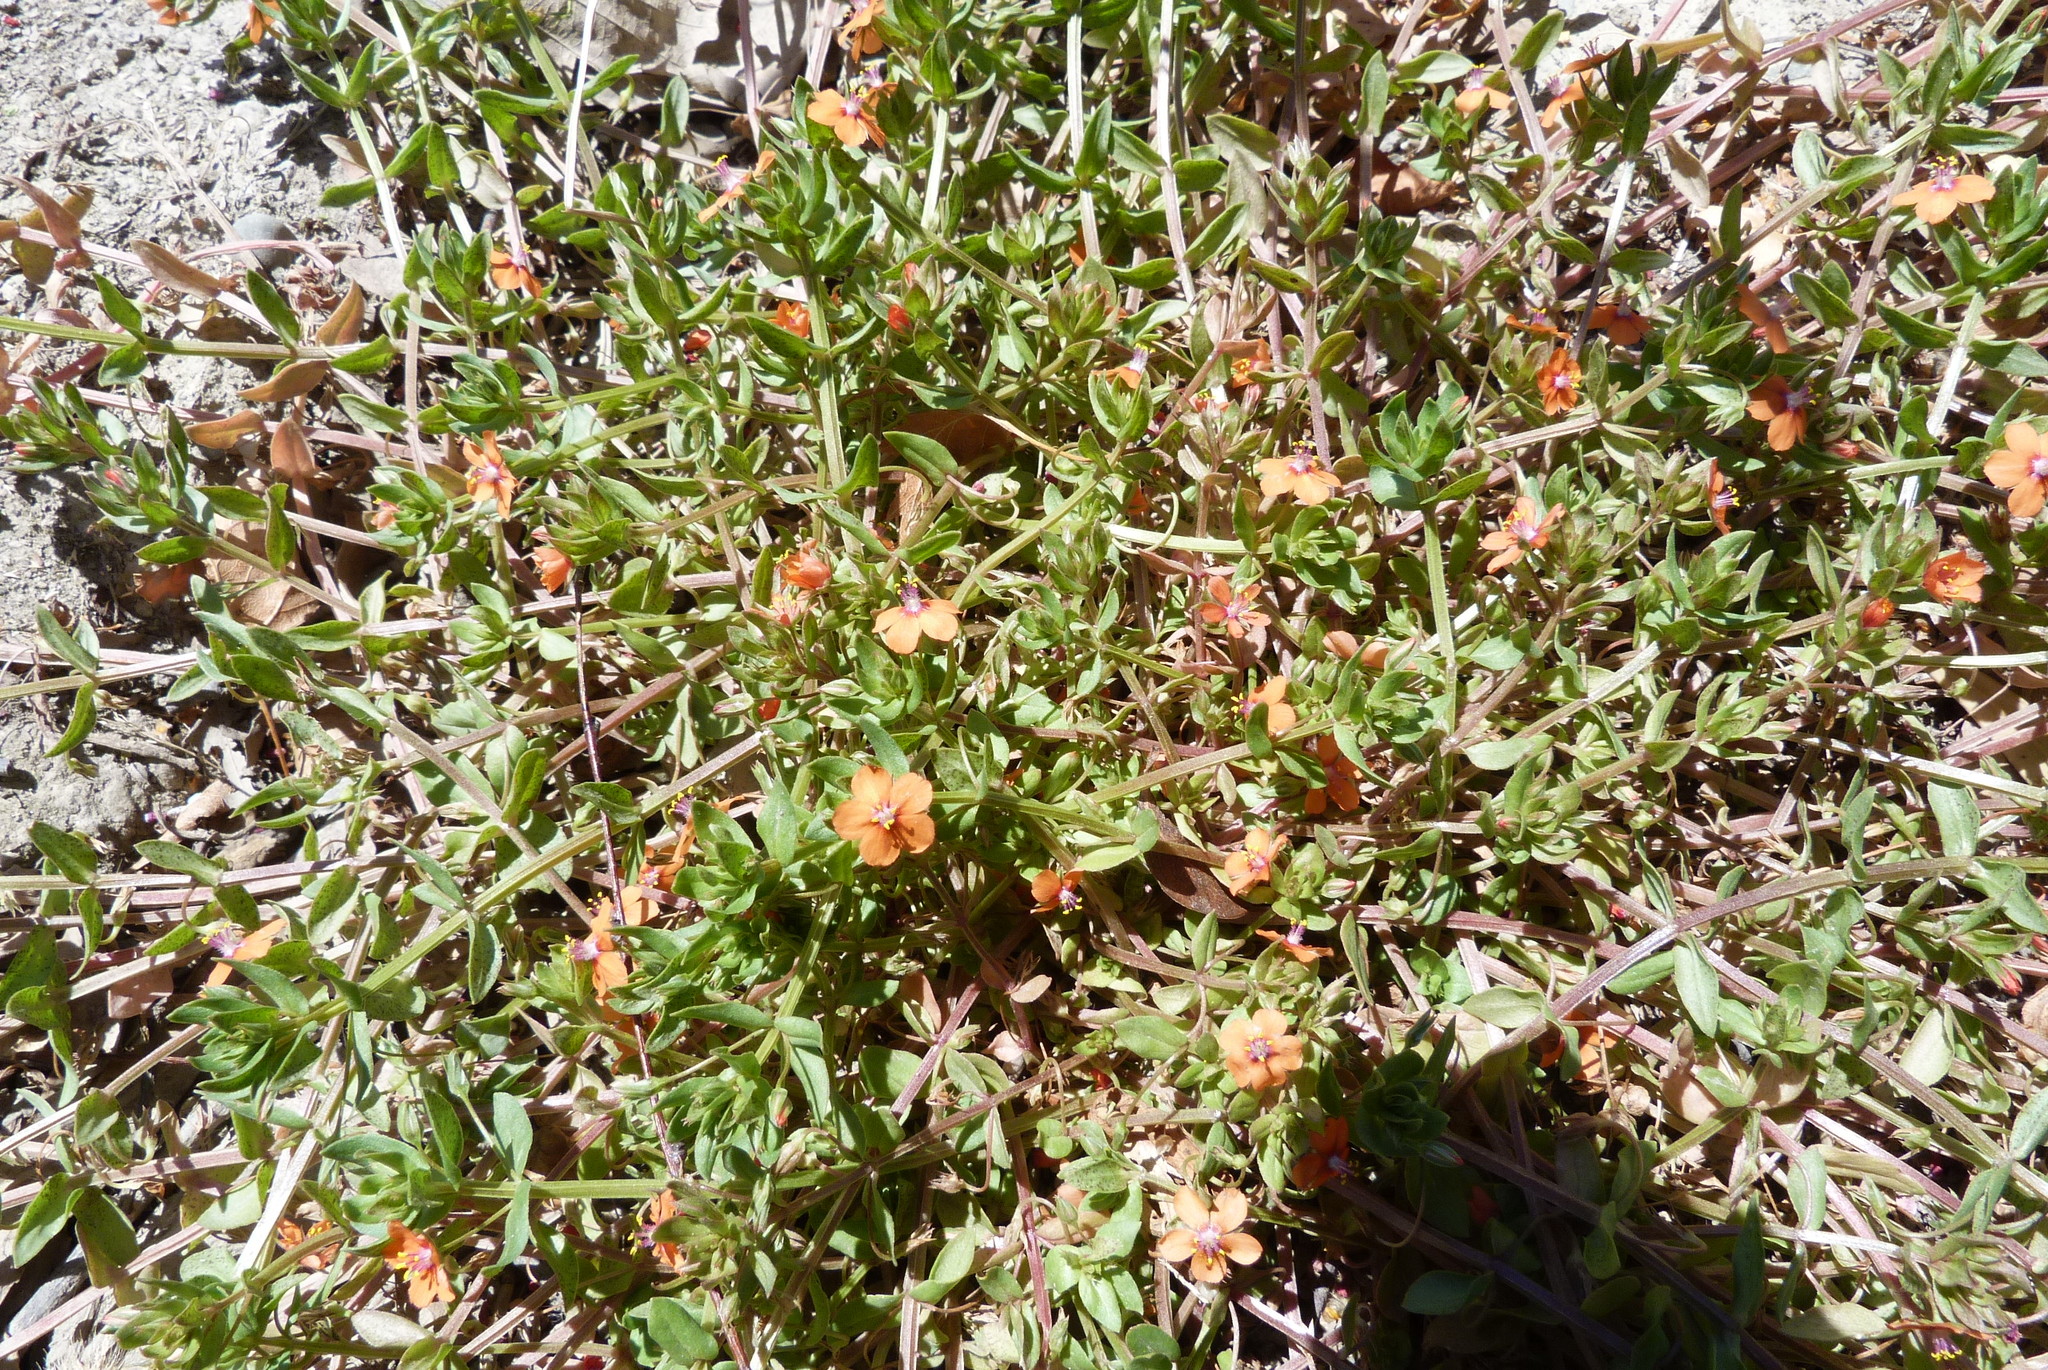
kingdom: Plantae
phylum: Tracheophyta
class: Magnoliopsida
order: Ericales
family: Primulaceae
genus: Lysimachia
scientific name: Lysimachia arvensis
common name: Scarlet pimpernel
